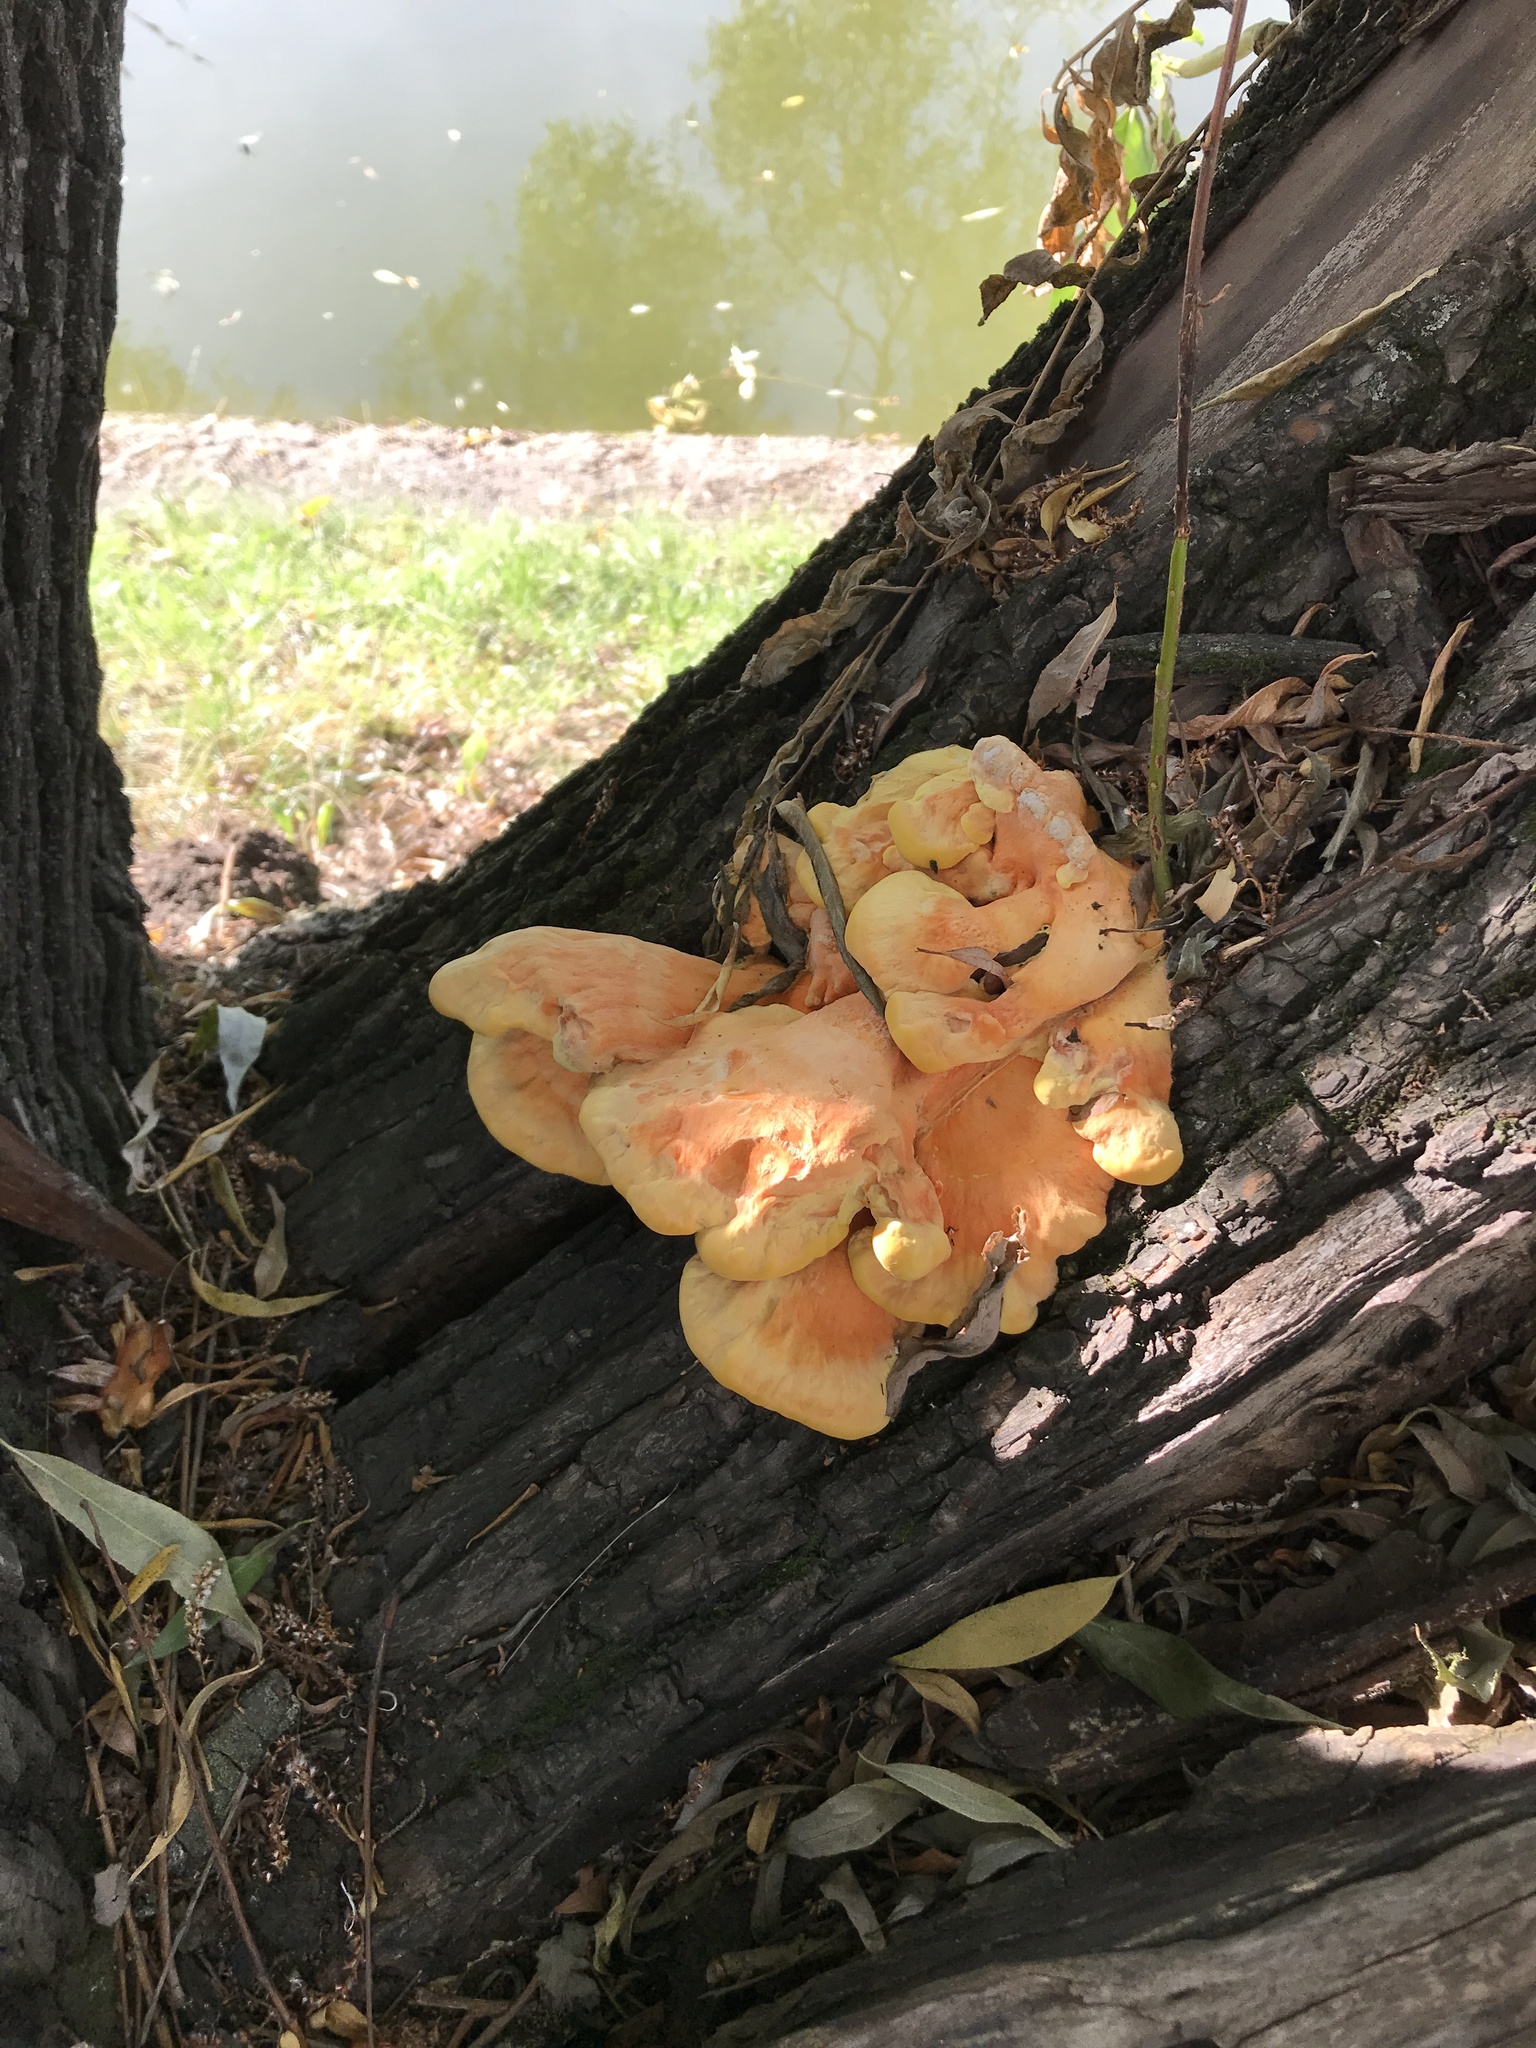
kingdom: Fungi
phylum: Basidiomycota
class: Agaricomycetes
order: Polyporales
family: Laetiporaceae
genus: Laetiporus
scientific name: Laetiporus sulphureus
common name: Chicken of the woods
